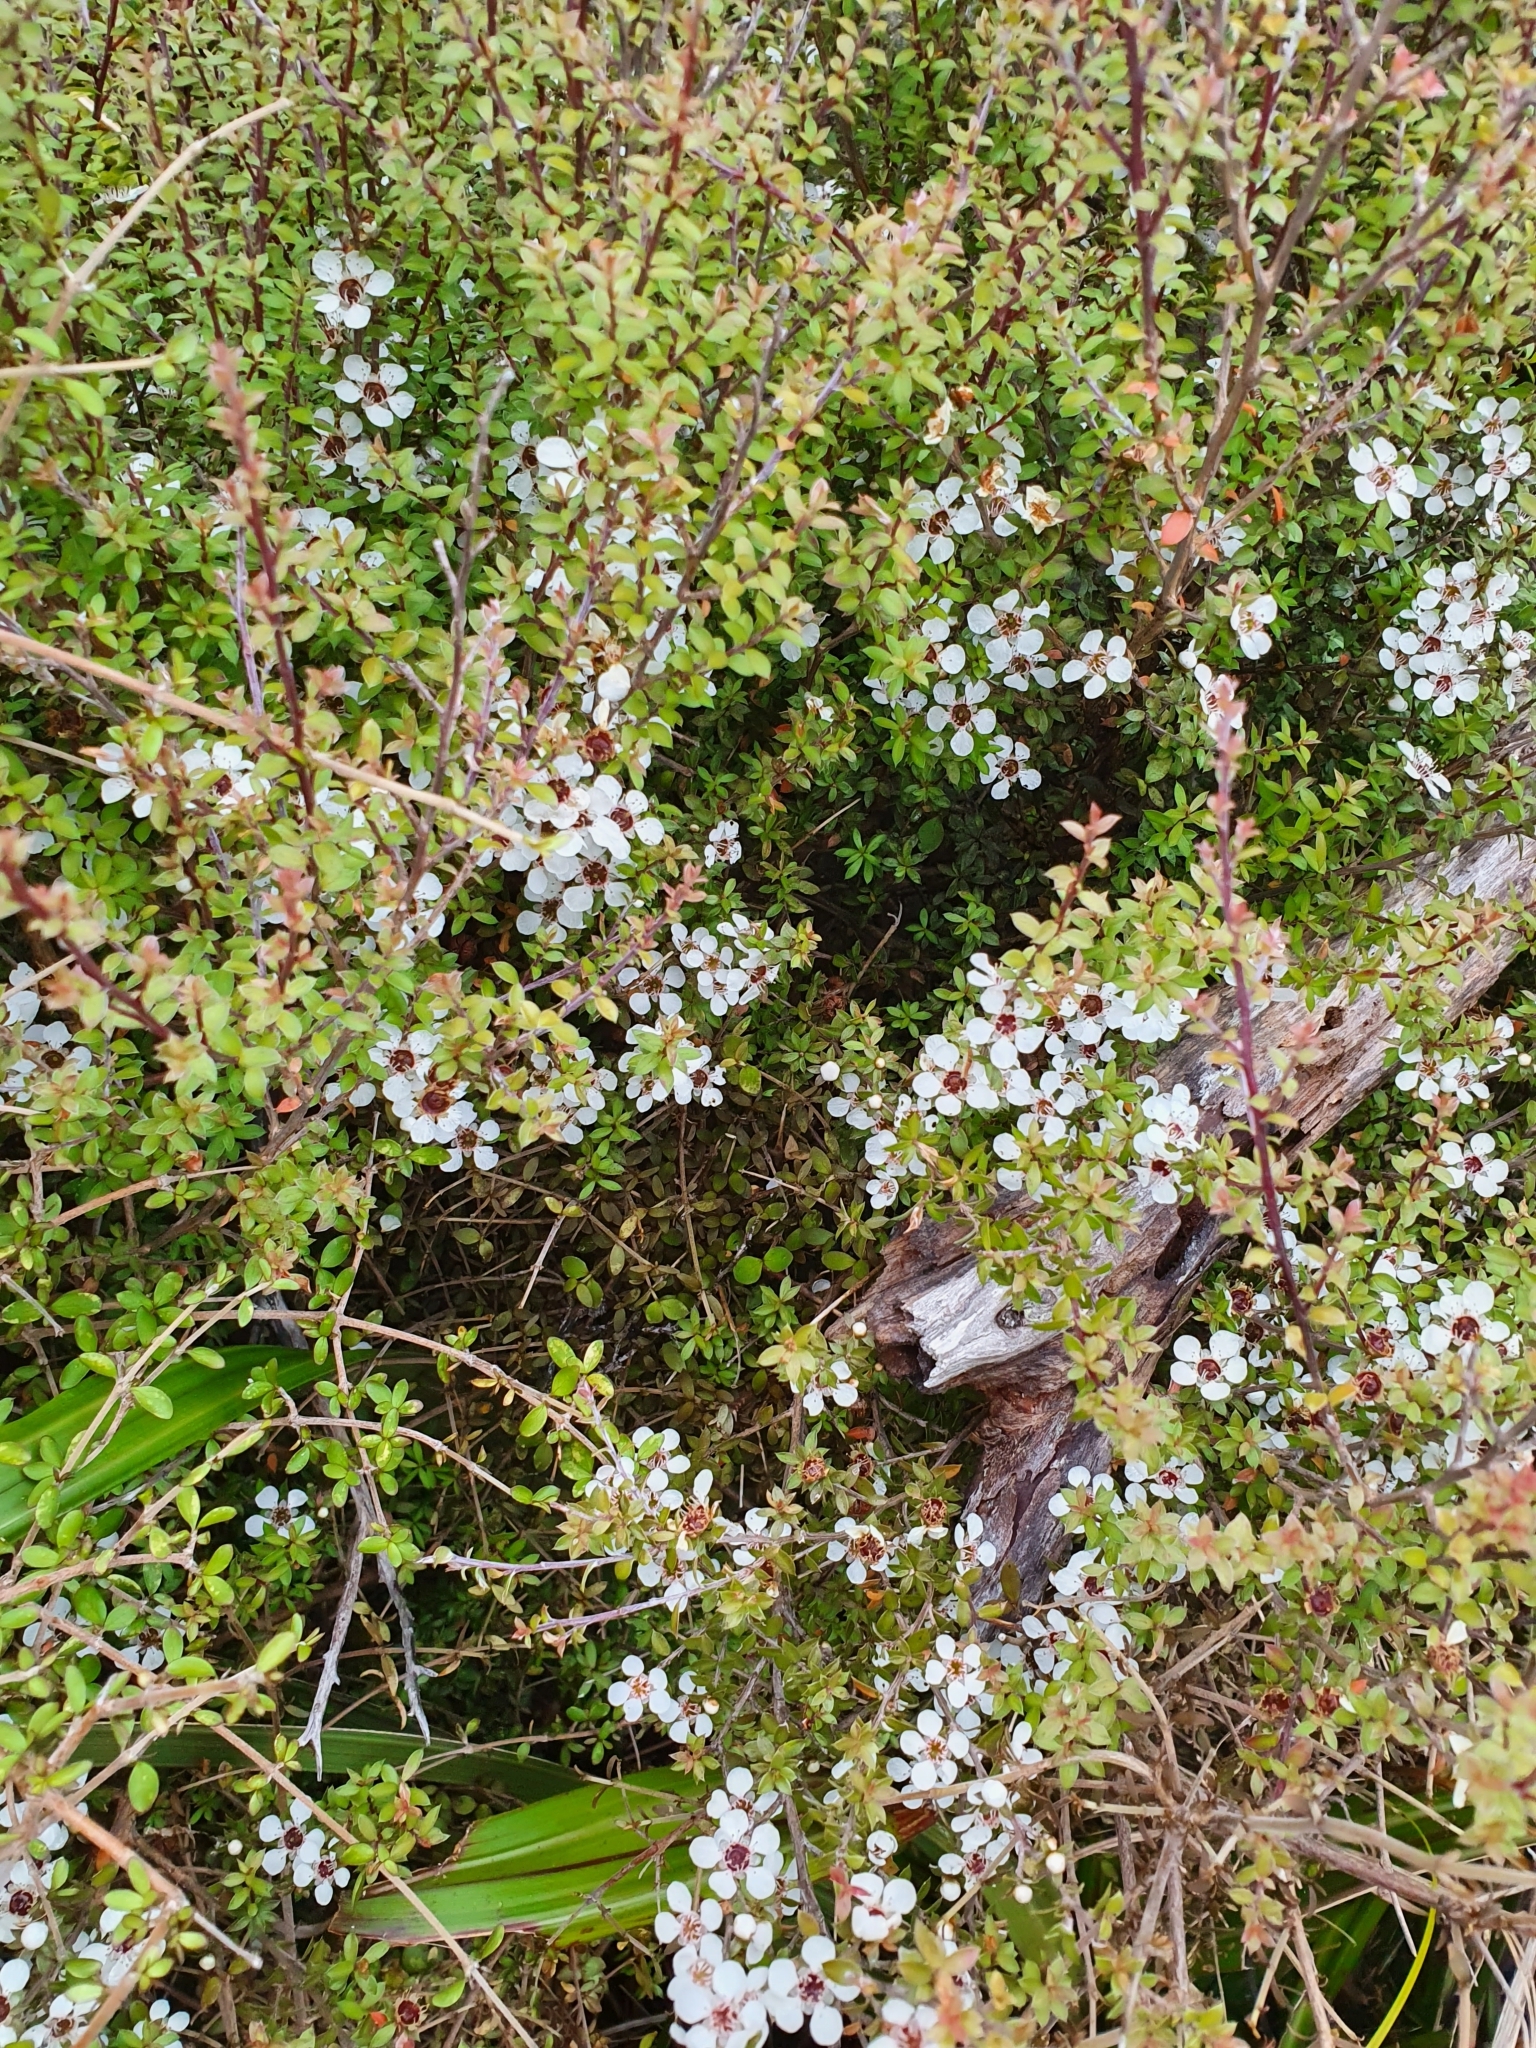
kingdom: Plantae
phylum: Tracheophyta
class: Magnoliopsida
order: Myrtales
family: Myrtaceae
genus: Leptospermum
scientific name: Leptospermum scoparium
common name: Broom tea-tree
